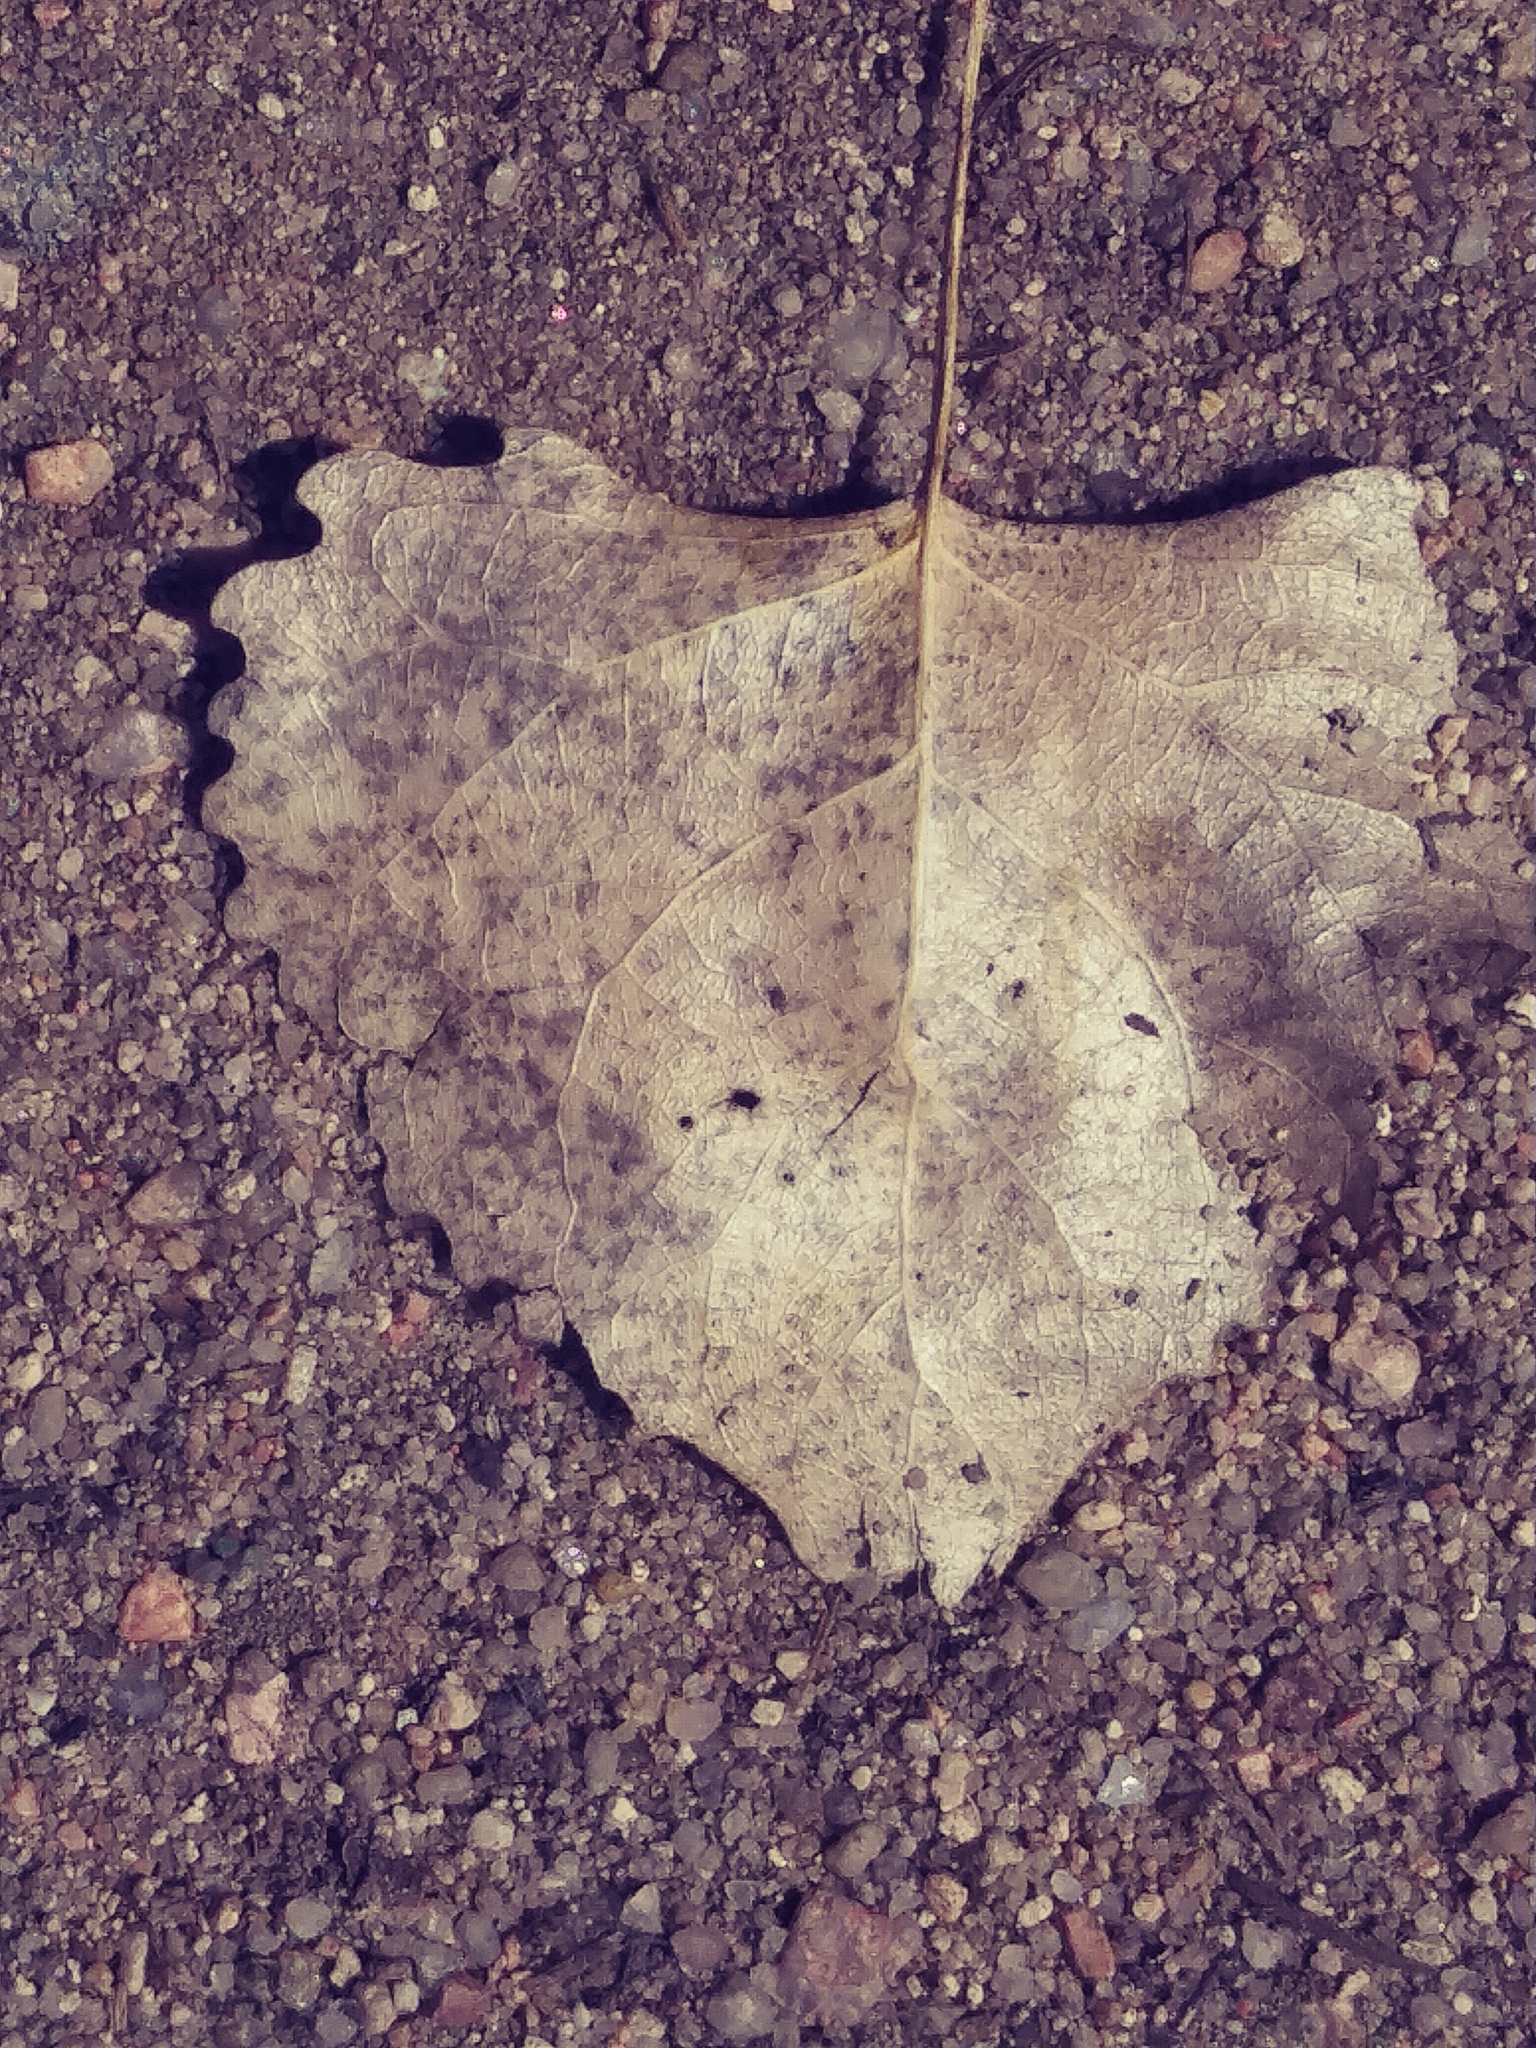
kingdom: Plantae
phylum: Tracheophyta
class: Magnoliopsida
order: Malpighiales
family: Salicaceae
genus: Populus
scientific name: Populus deltoides
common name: Eastern cottonwood
